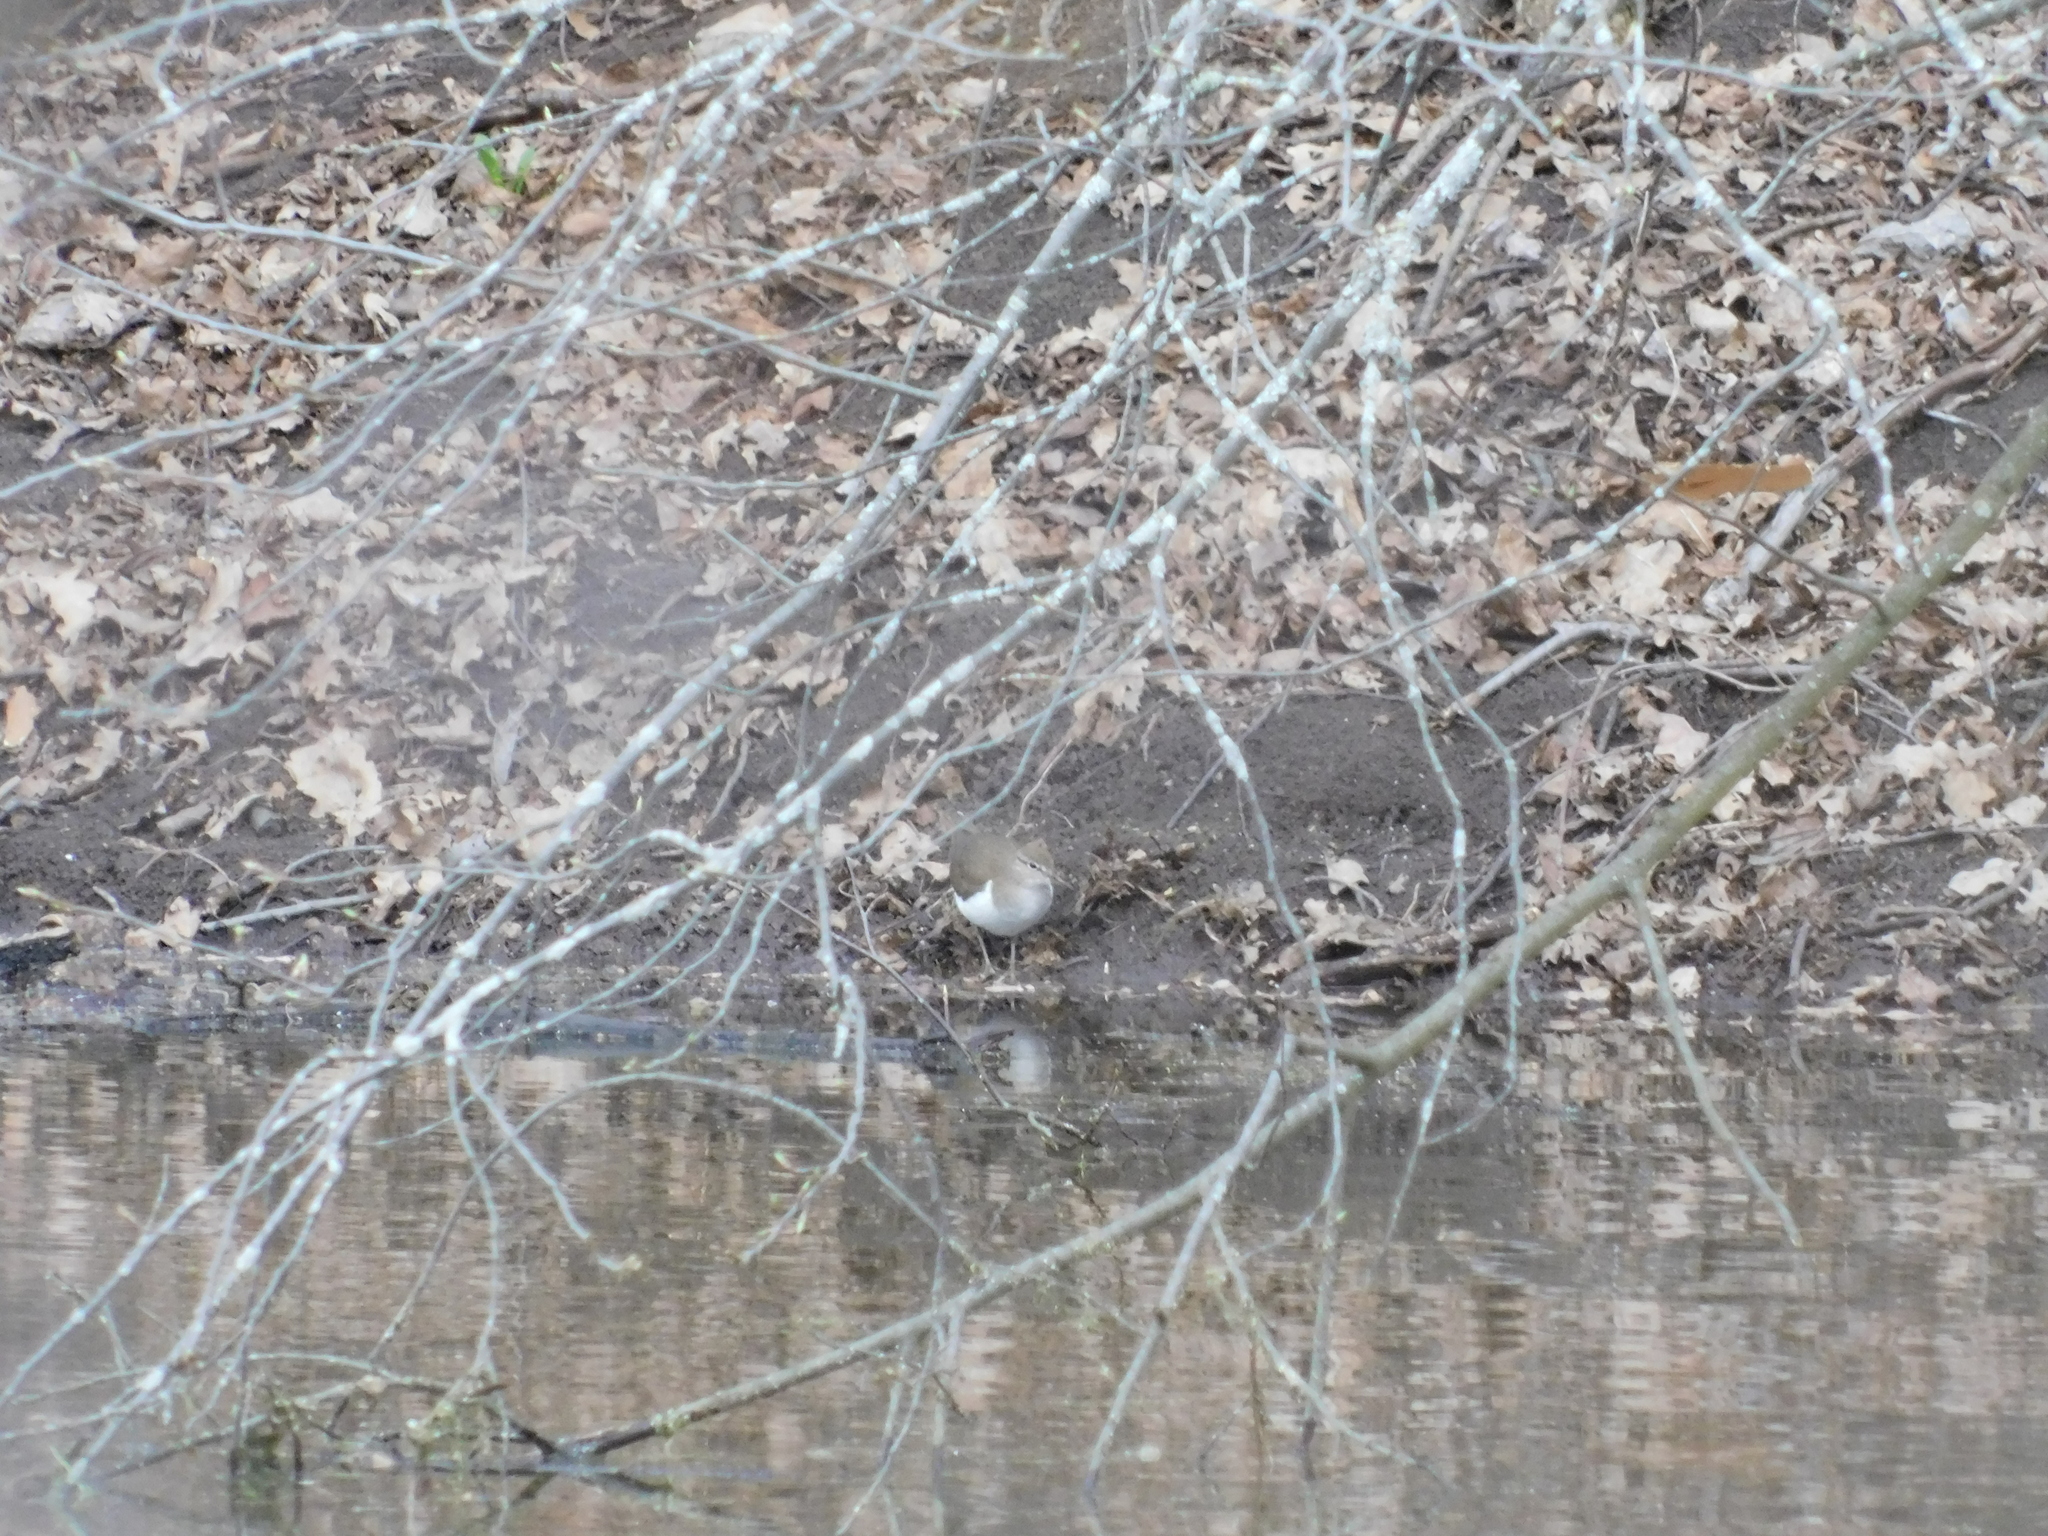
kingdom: Animalia
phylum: Chordata
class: Aves
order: Charadriiformes
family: Scolopacidae
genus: Actitis
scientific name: Actitis hypoleucos
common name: Common sandpiper
